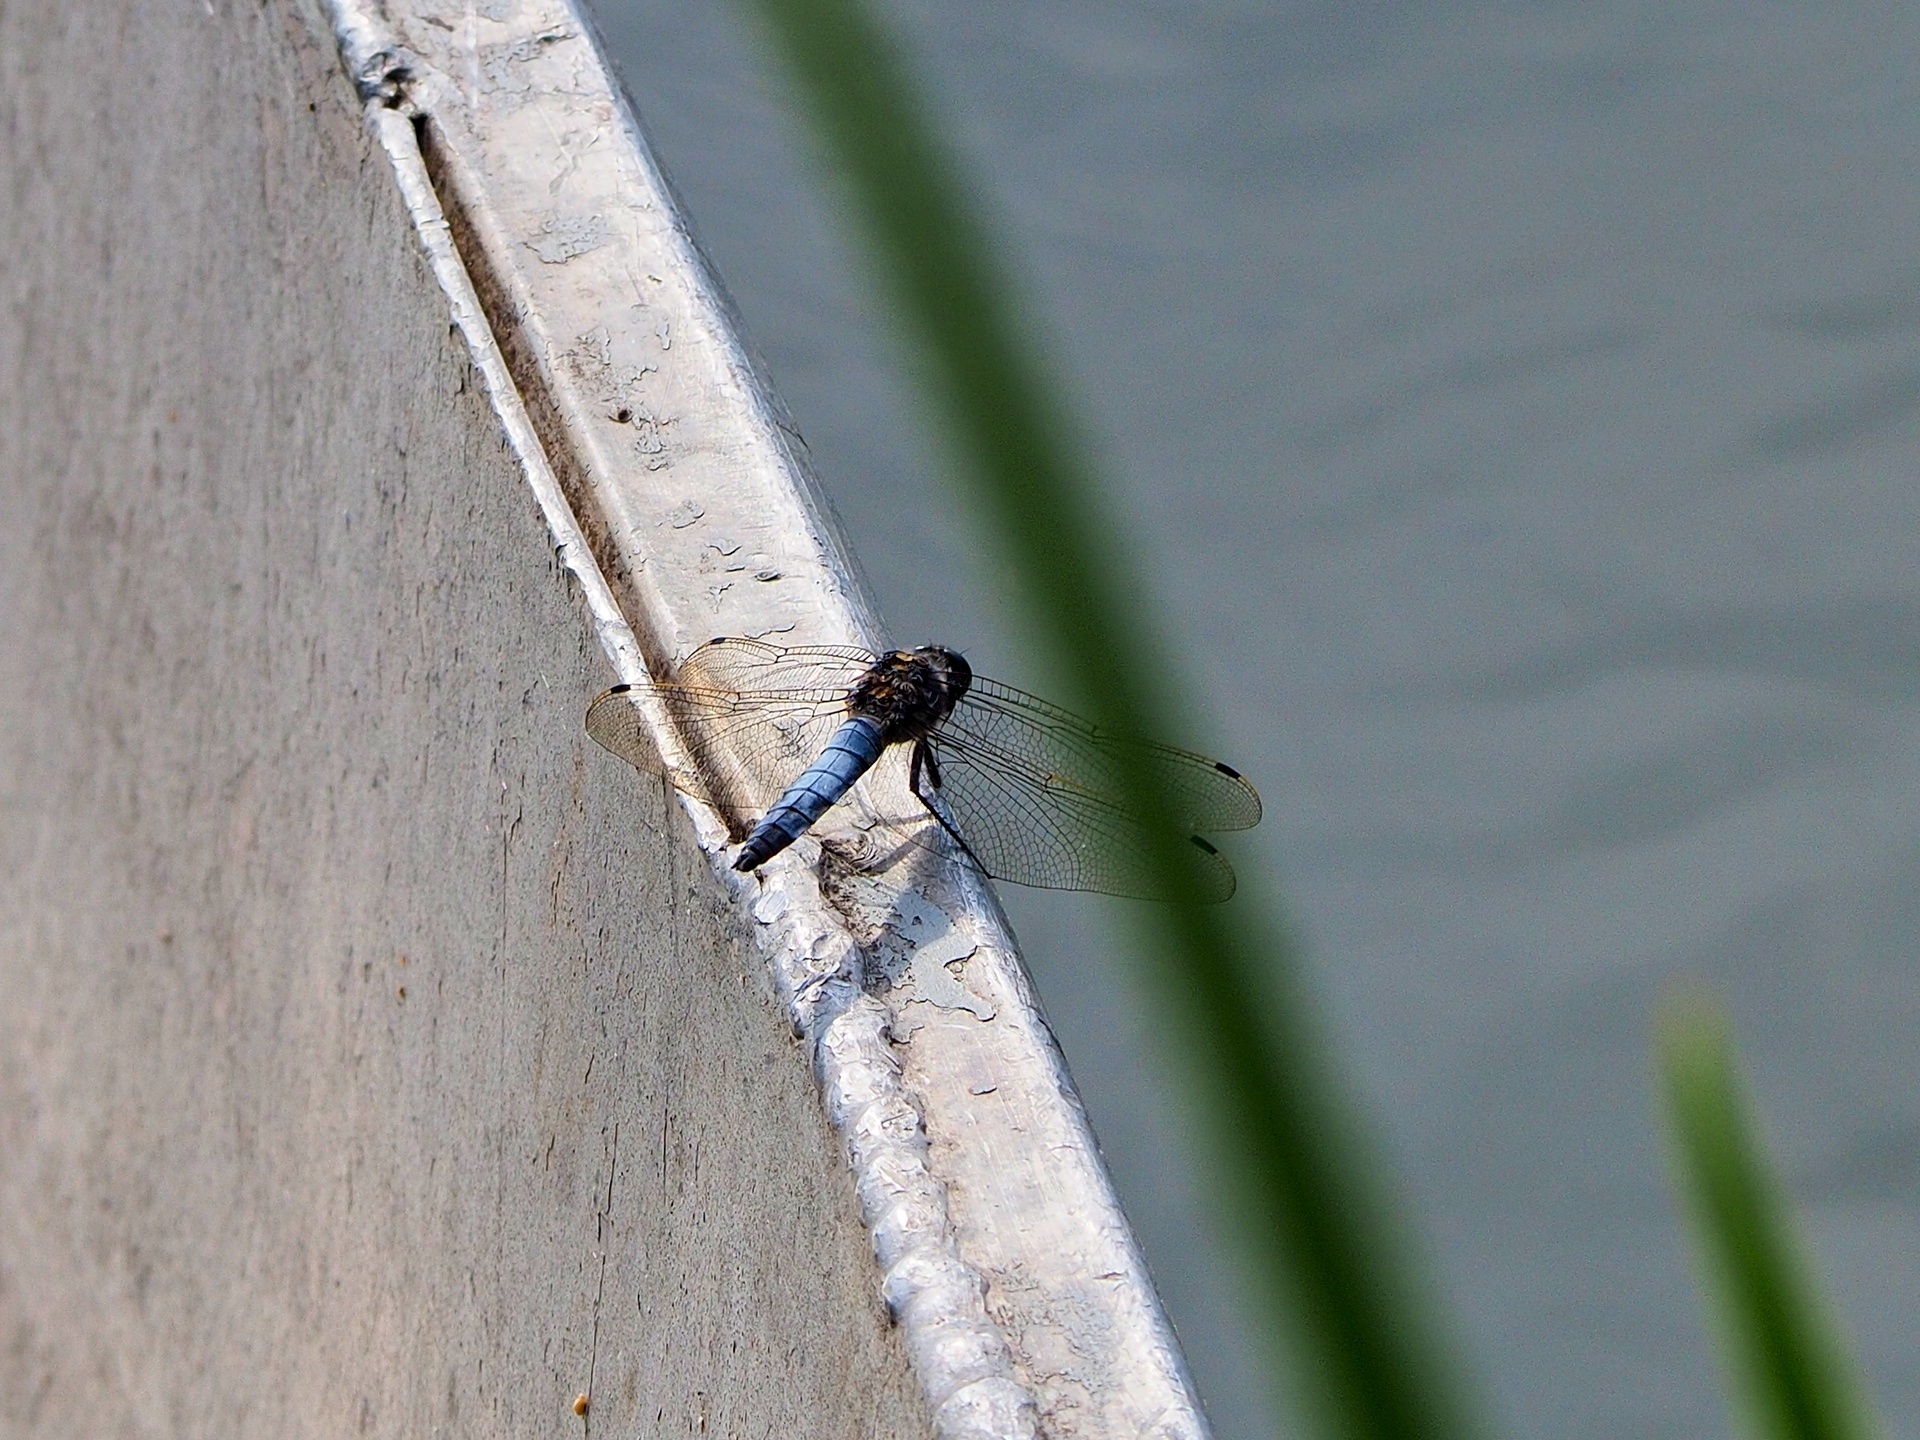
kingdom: Animalia
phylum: Arthropoda
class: Insecta
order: Odonata
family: Libellulidae
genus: Orthetrum
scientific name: Orthetrum cancellatum
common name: Black-tailed skimmer
